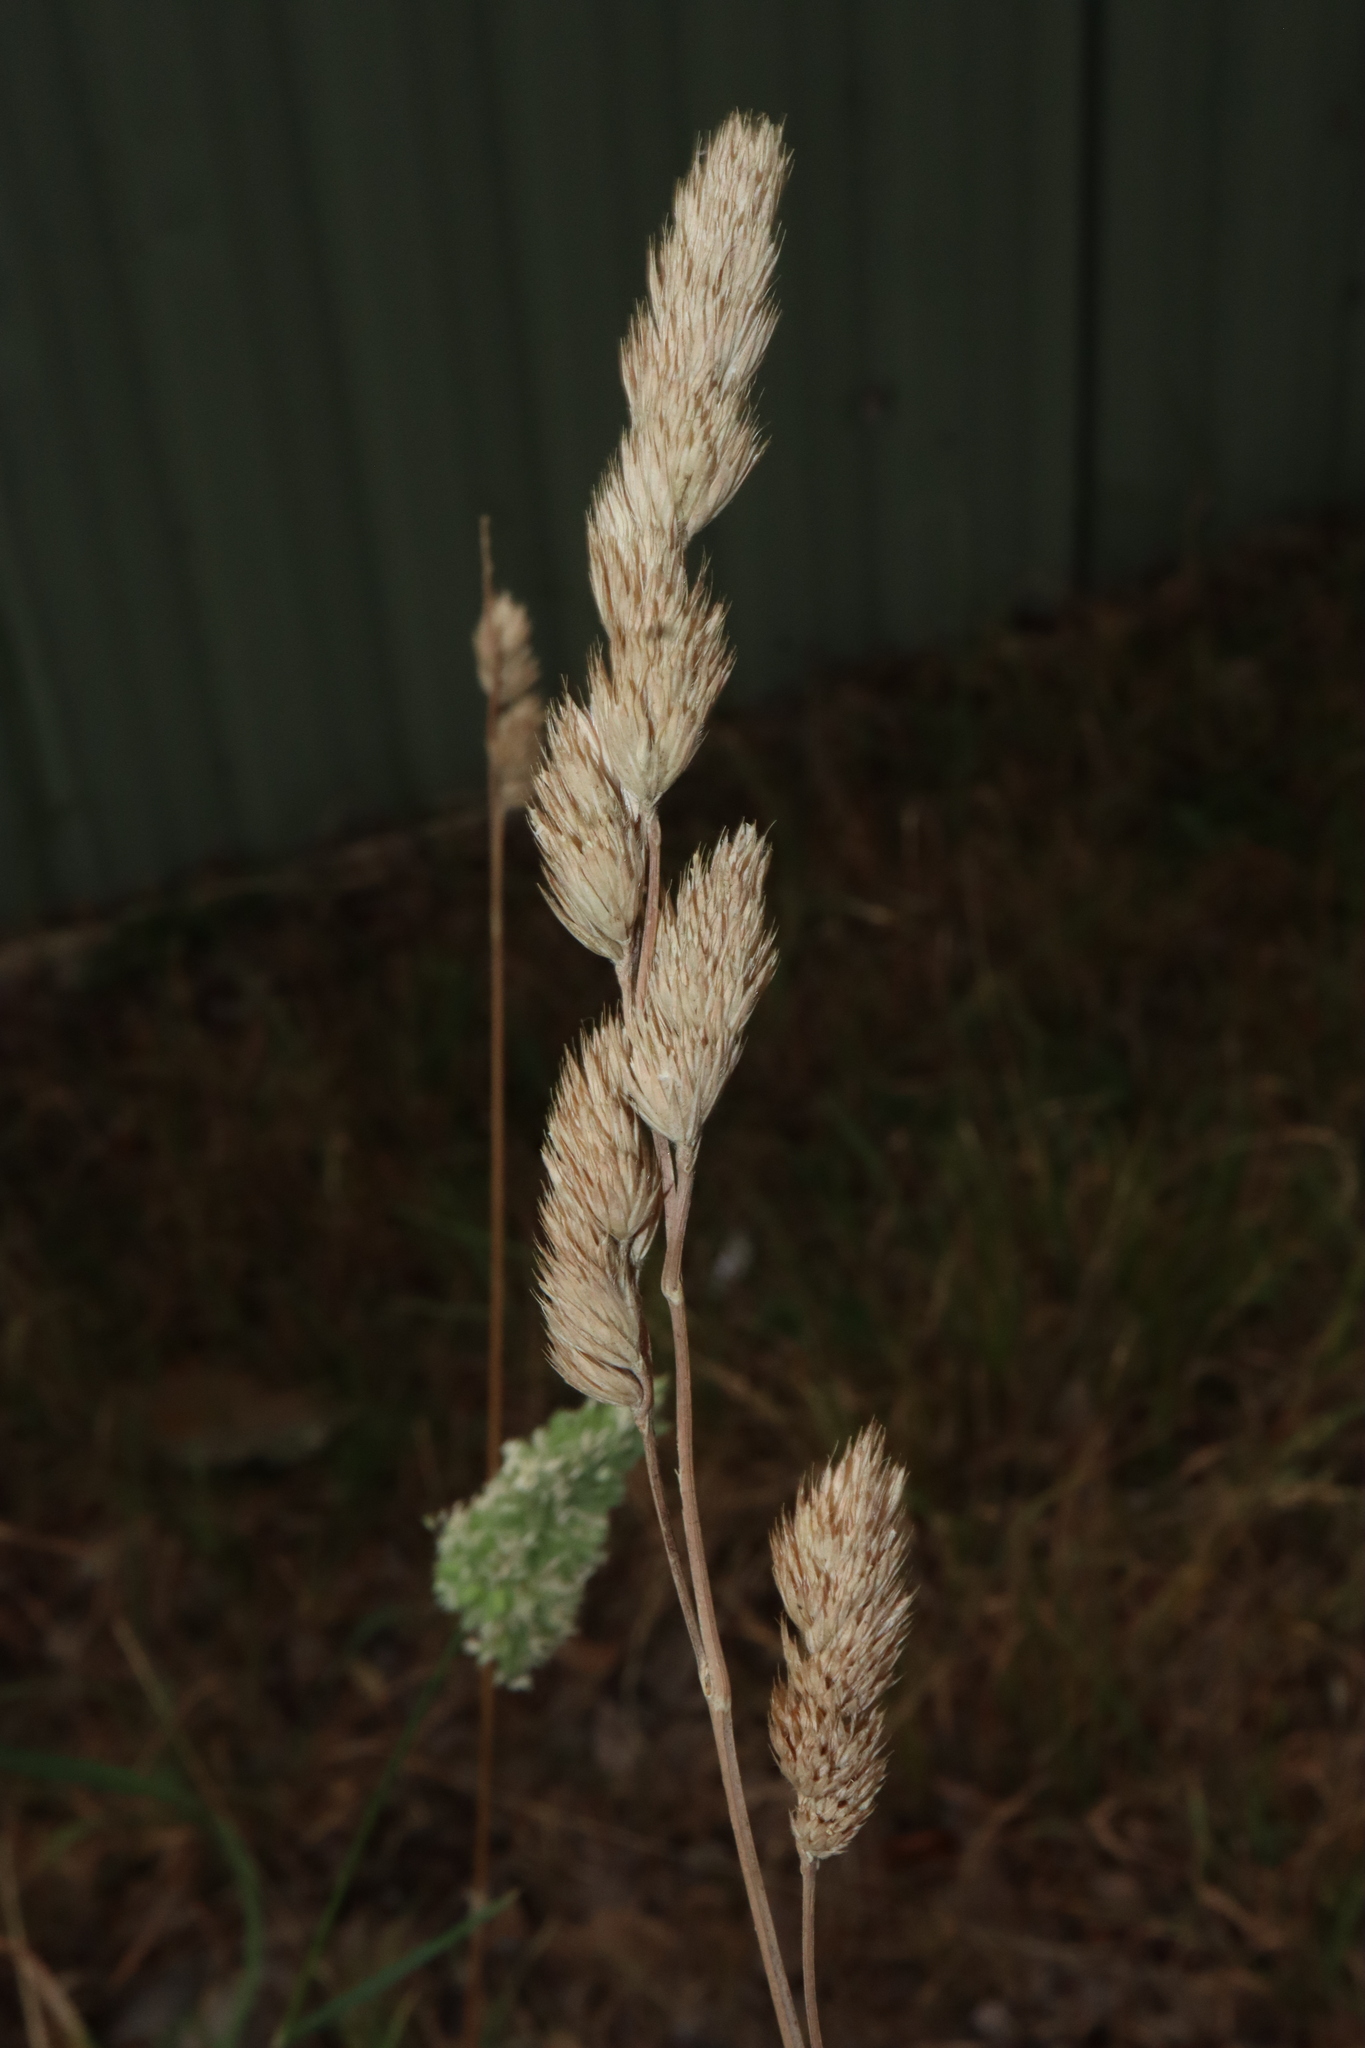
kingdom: Plantae
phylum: Tracheophyta
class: Liliopsida
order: Poales
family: Poaceae
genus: Dactylis
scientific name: Dactylis glomerata
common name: Orchardgrass
